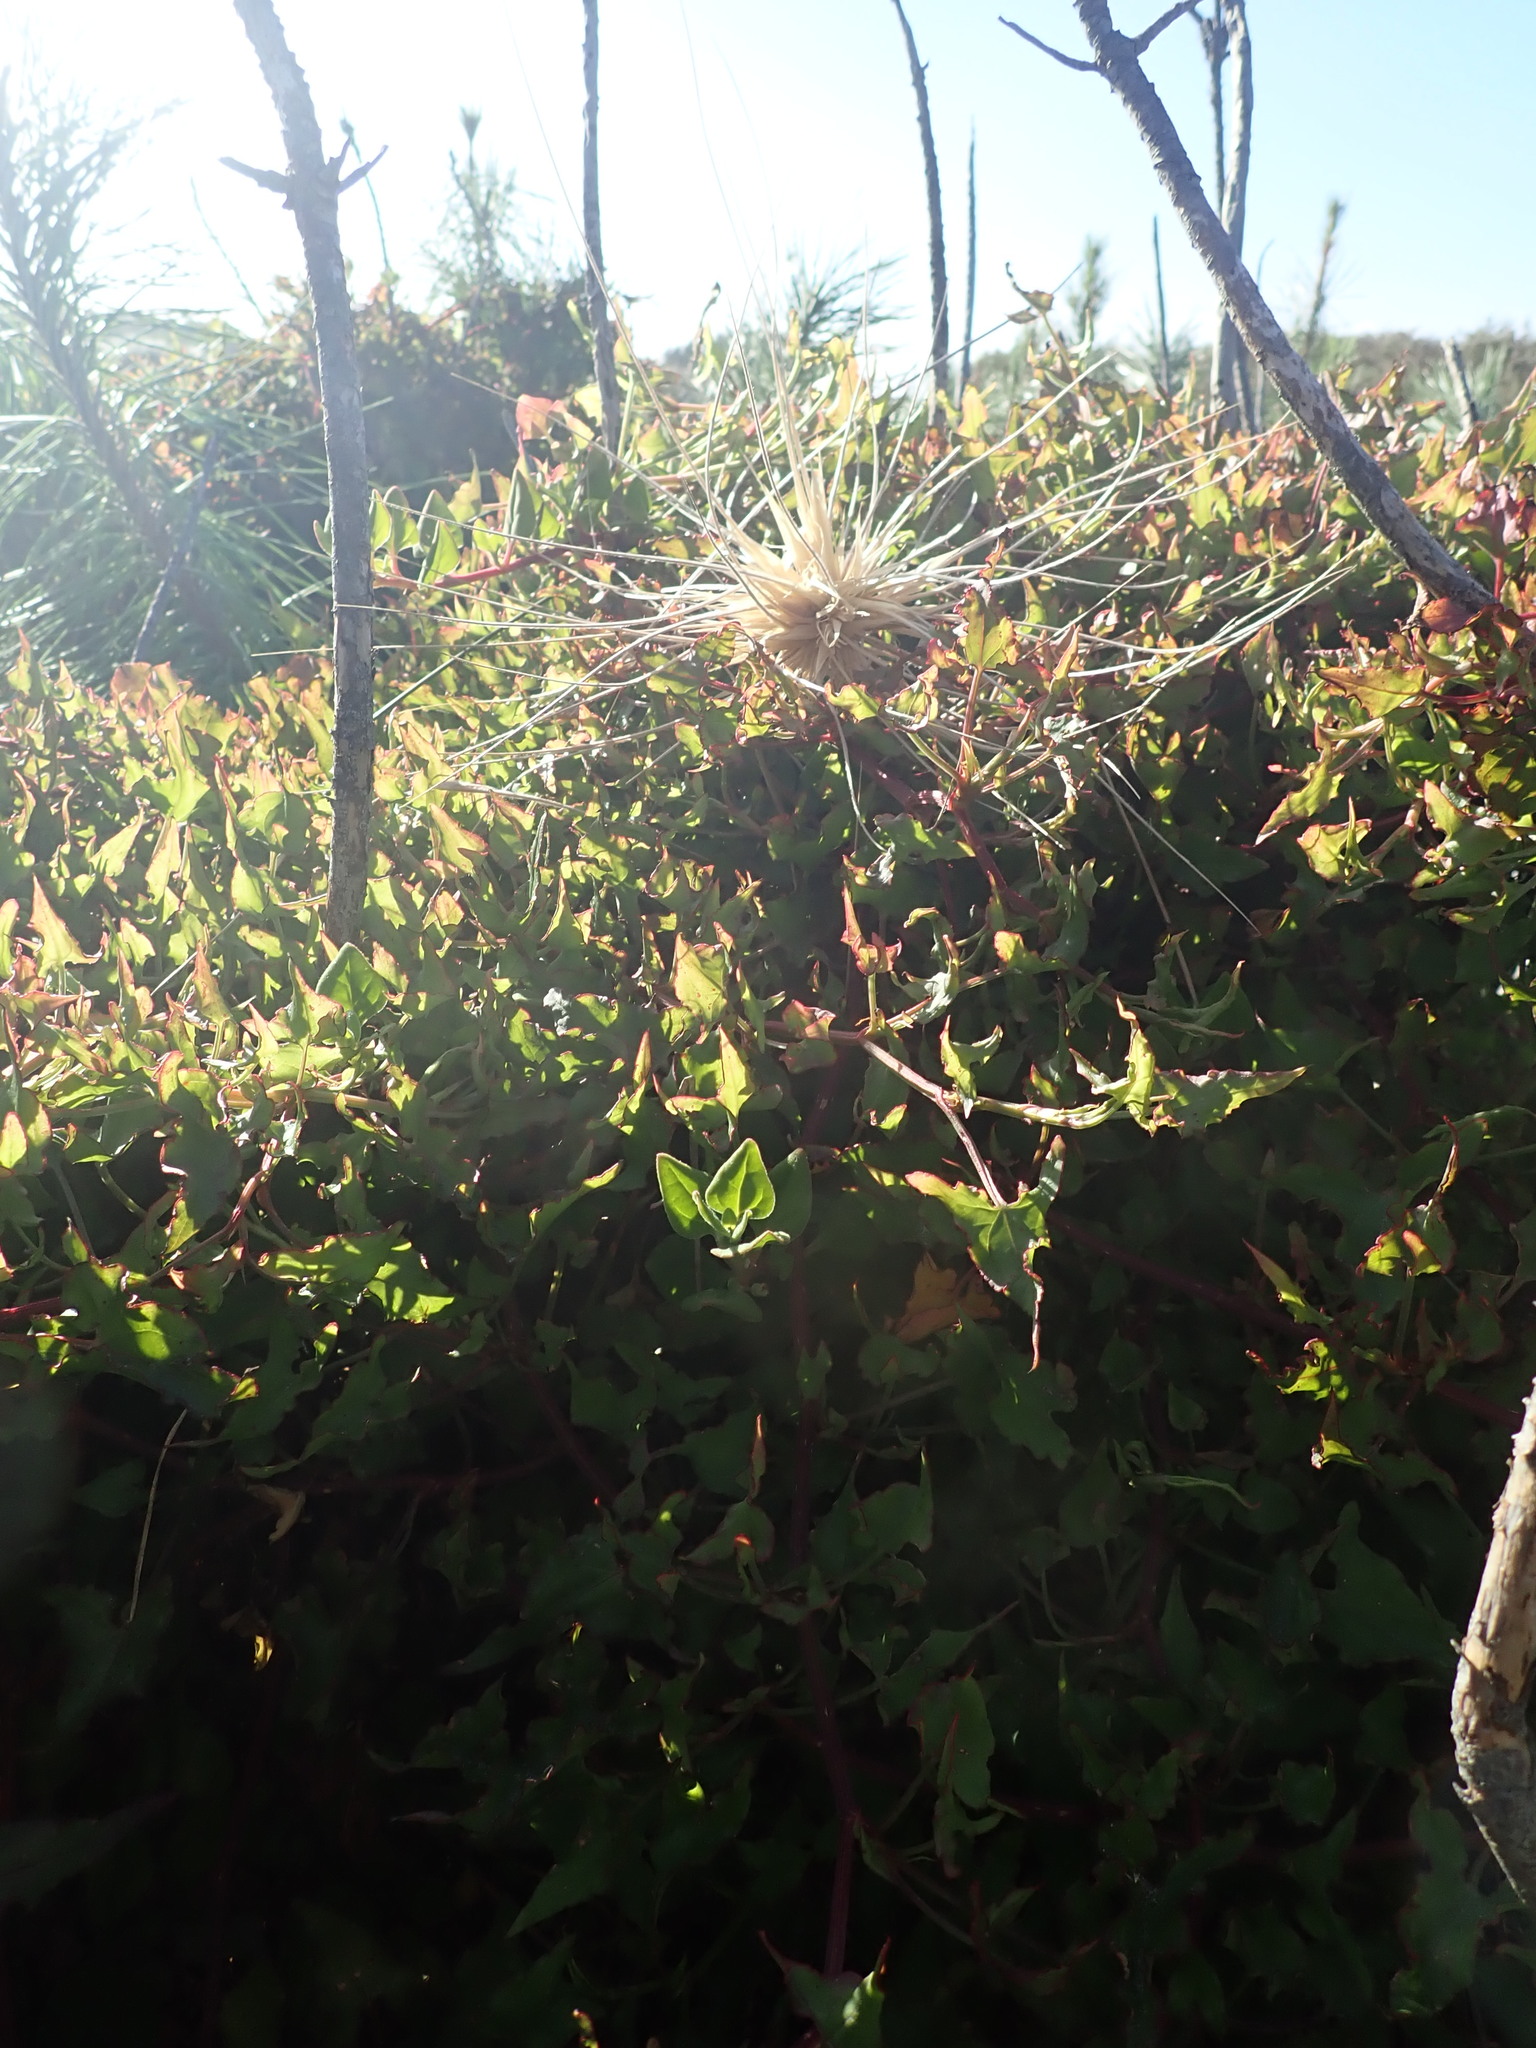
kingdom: Plantae
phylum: Tracheophyta
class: Magnoliopsida
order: Caryophyllales
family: Polygonaceae
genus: Rumex
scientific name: Rumex sagittatus
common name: Climbing dock
